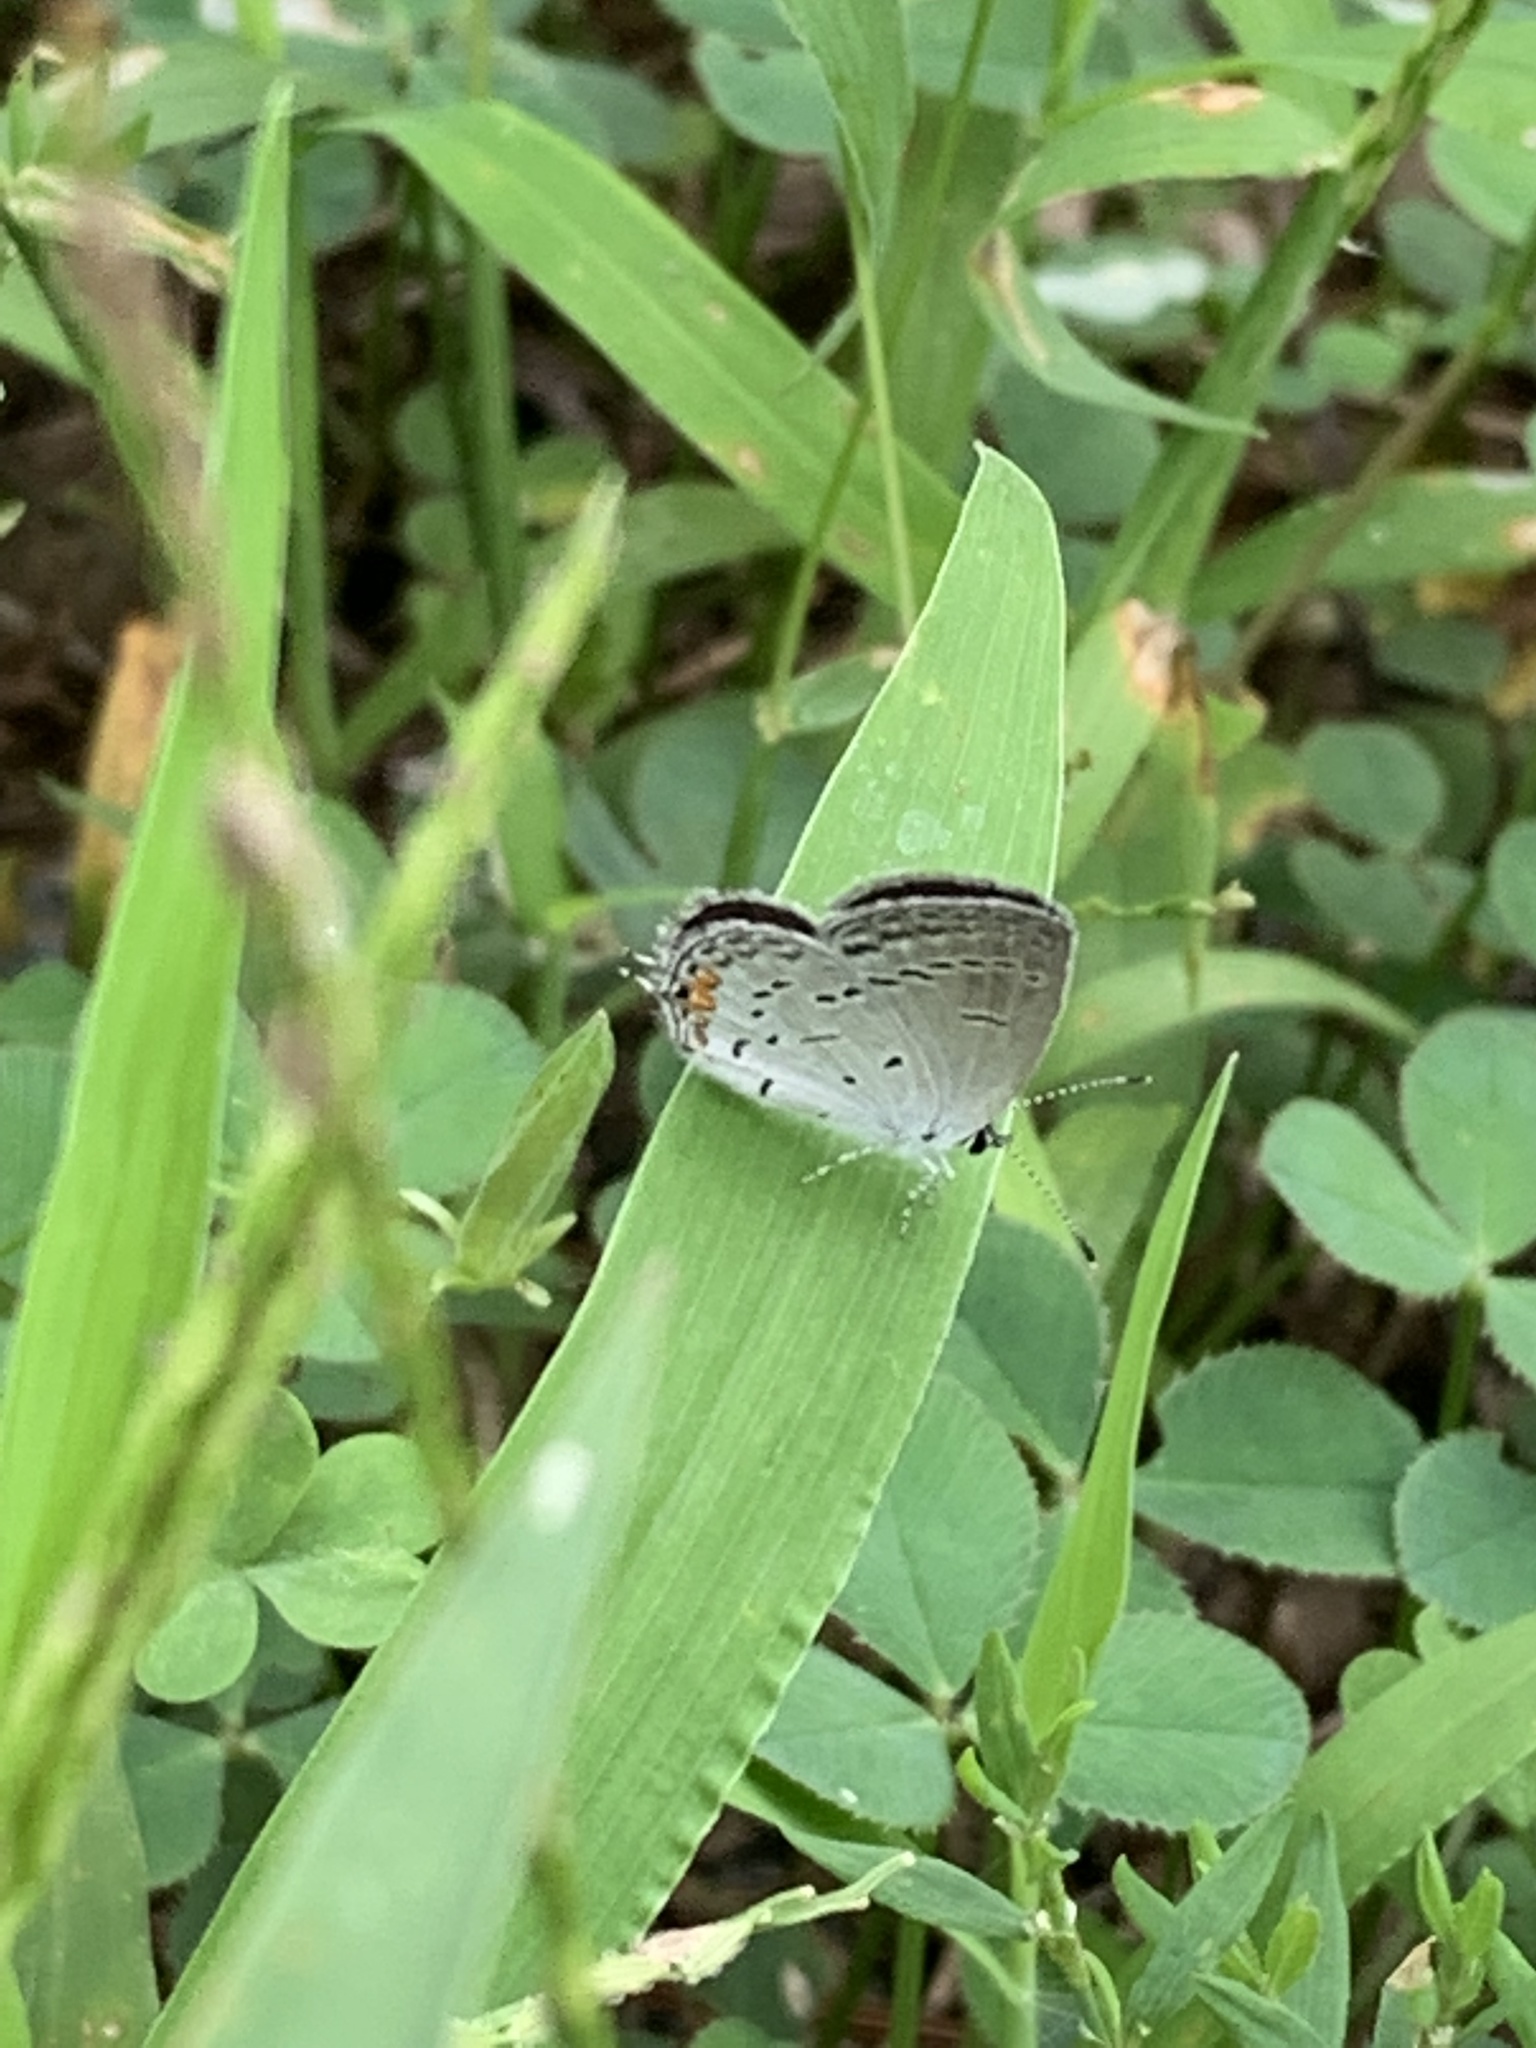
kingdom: Animalia
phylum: Arthropoda
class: Insecta
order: Lepidoptera
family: Lycaenidae
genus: Elkalyce
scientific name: Elkalyce comyntas
